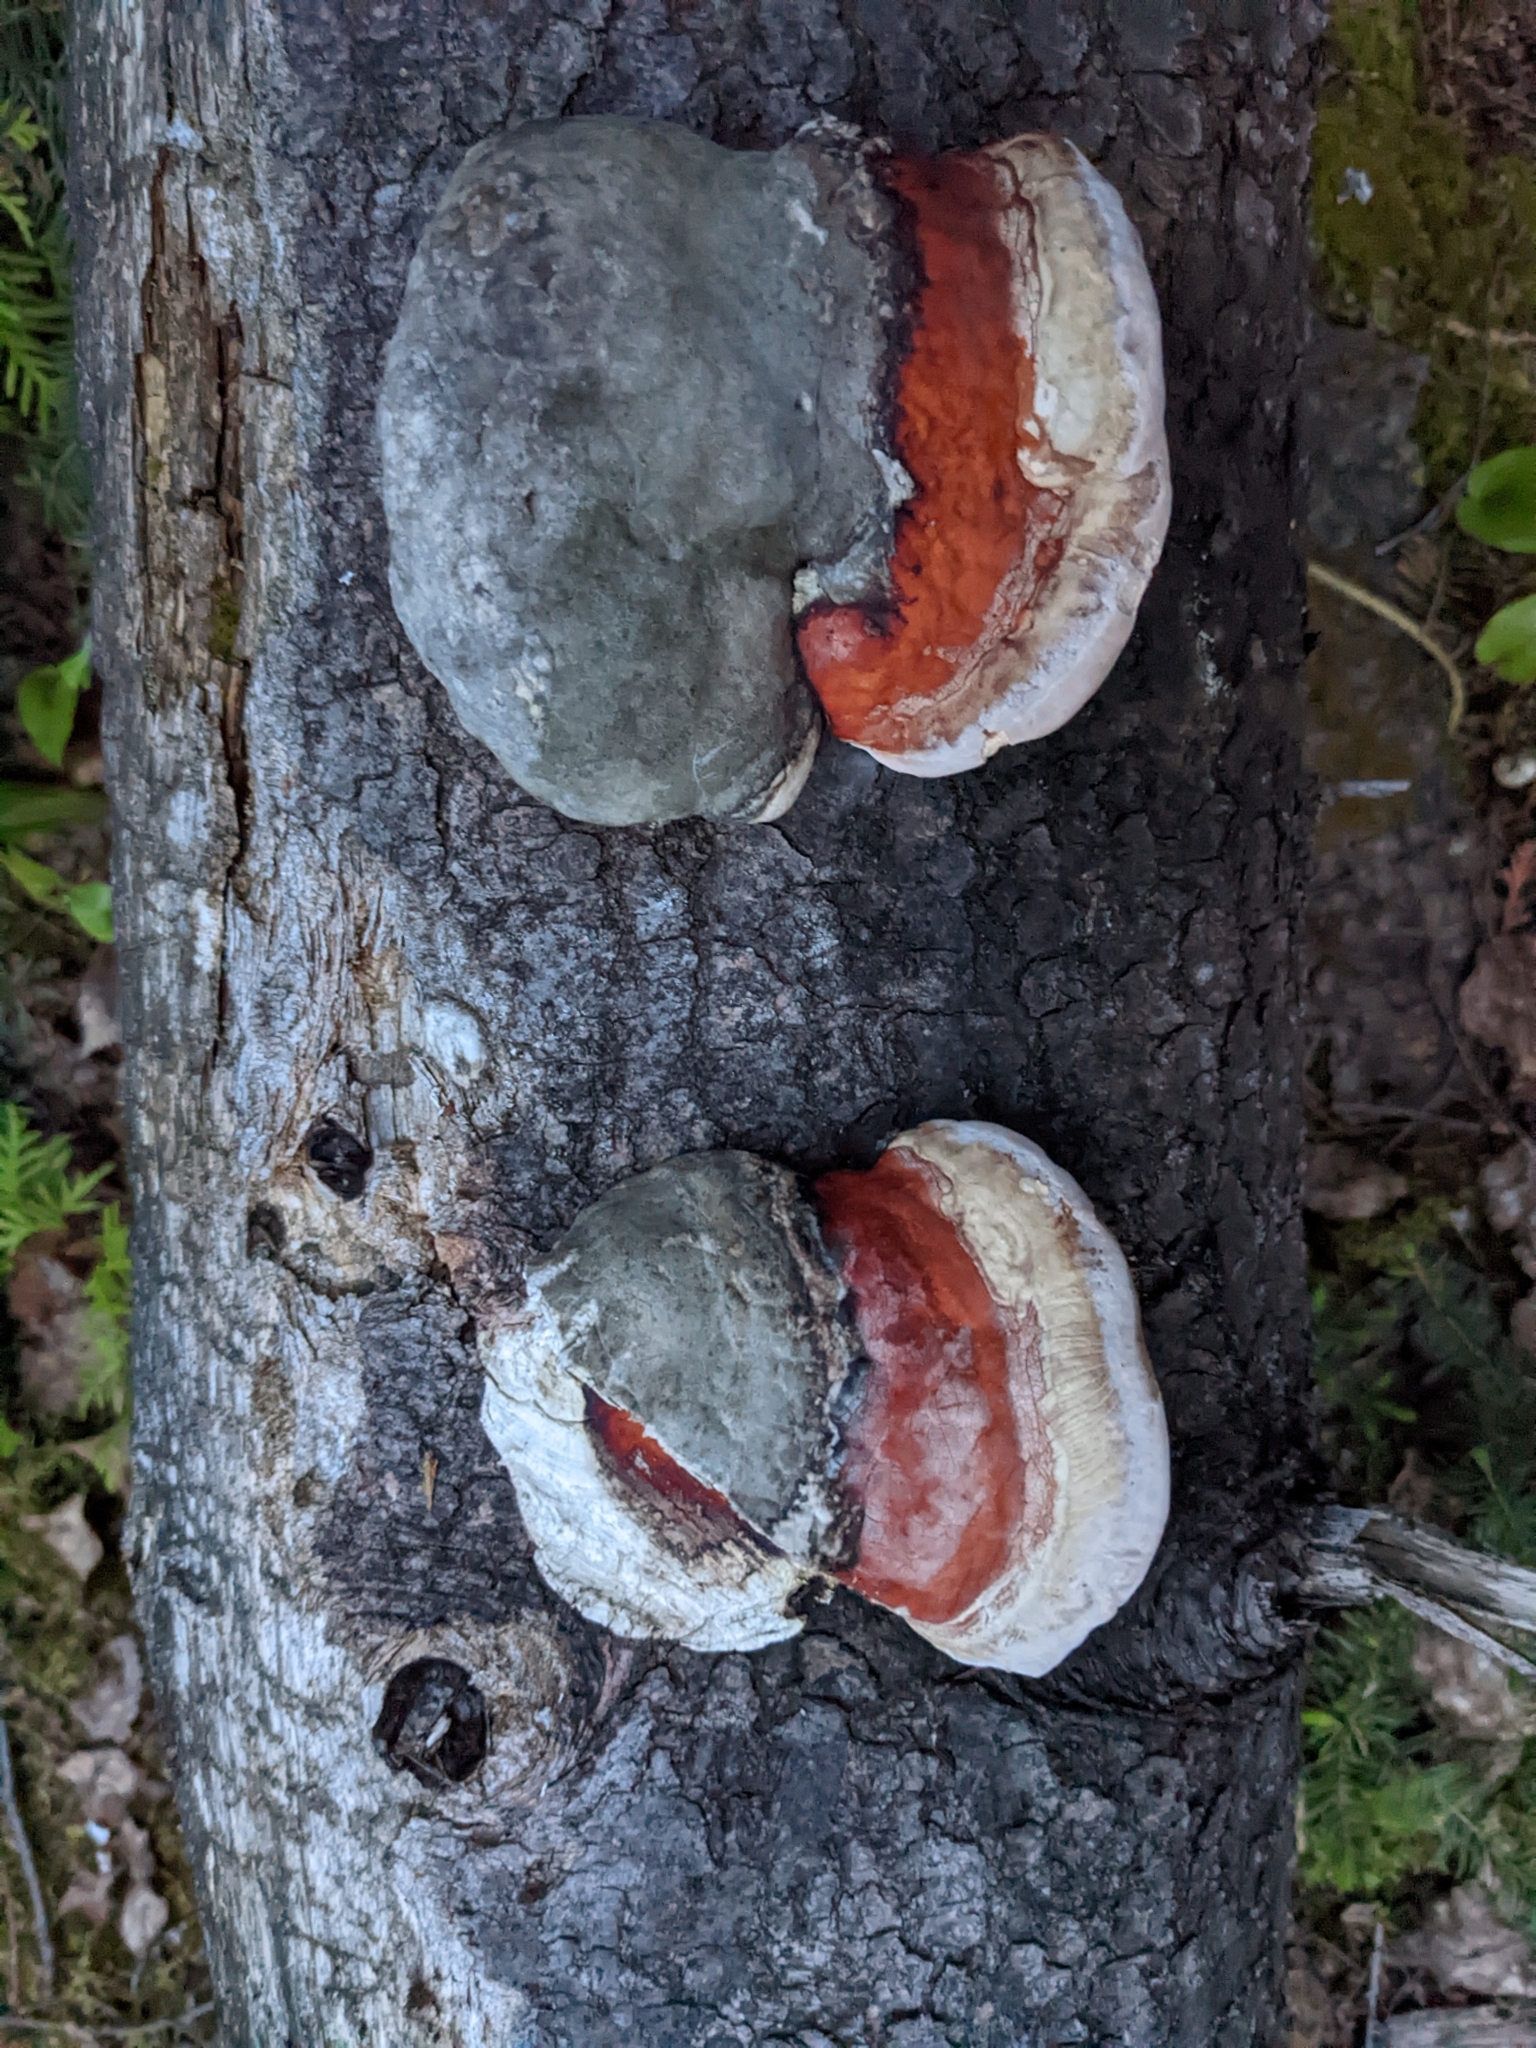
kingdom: Fungi
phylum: Basidiomycota
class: Agaricomycetes
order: Polyporales
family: Fomitopsidaceae
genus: Fomitopsis
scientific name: Fomitopsis mounceae
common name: Northern red belt
